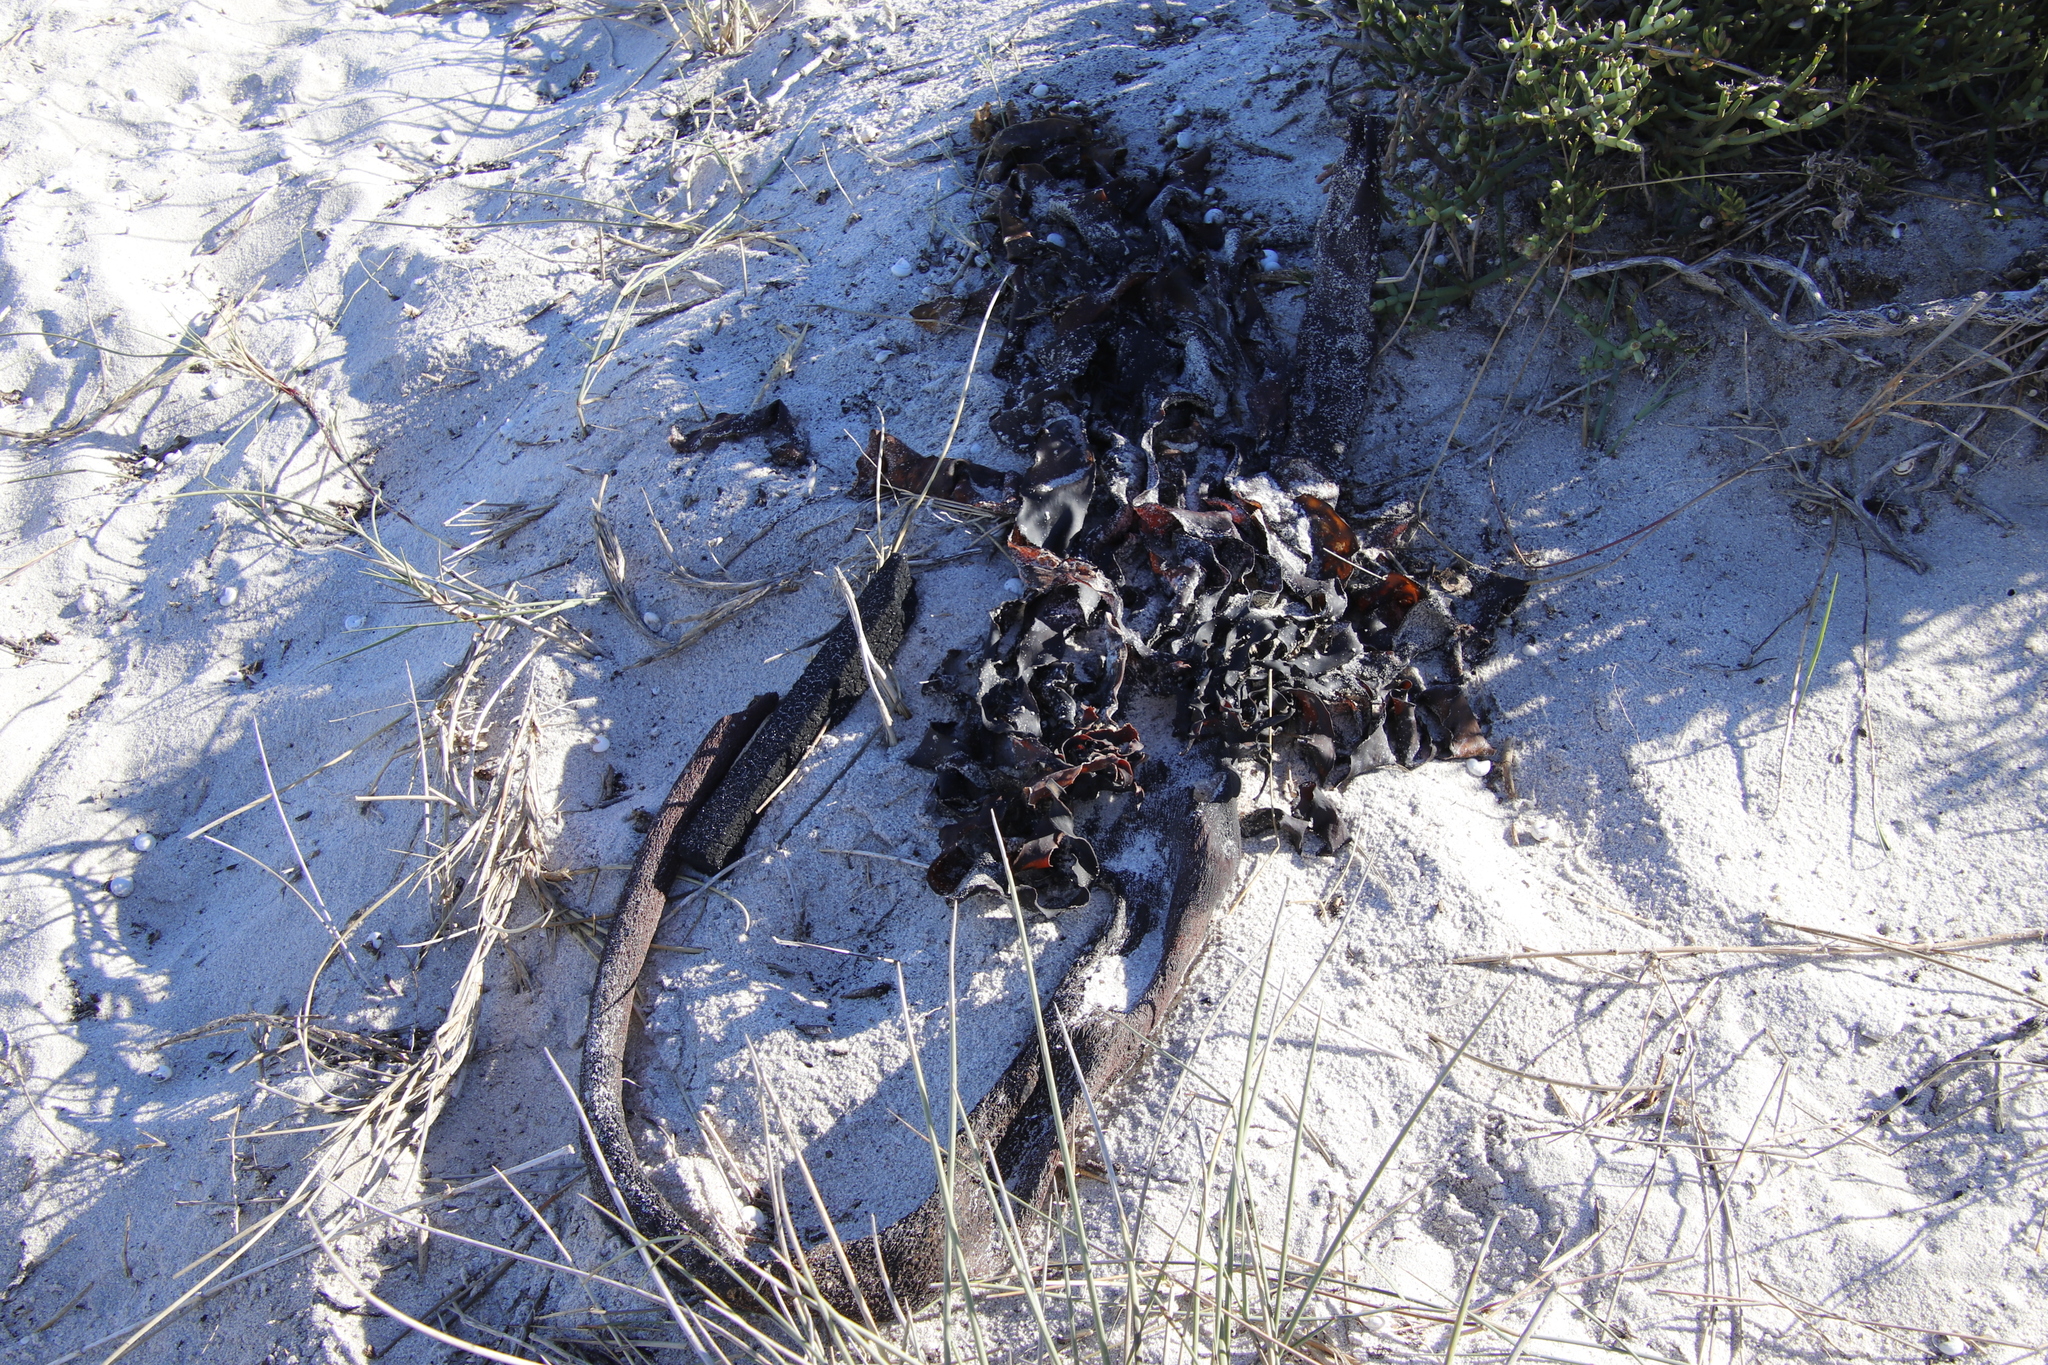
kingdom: Chromista
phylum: Ochrophyta
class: Phaeophyceae
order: Laminariales
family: Lessoniaceae
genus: Ecklonia
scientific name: Ecklonia
